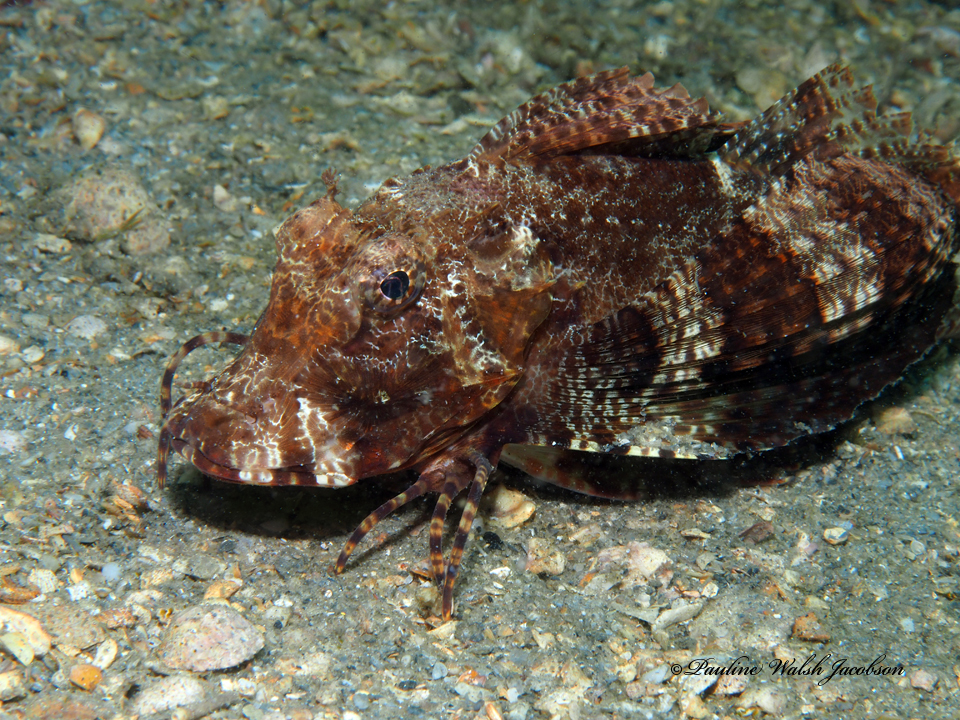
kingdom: Animalia
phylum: Chordata
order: Scorpaeniformes
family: Triglidae
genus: Prionotus
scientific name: Prionotus ophryas
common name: Bandtail searobin
